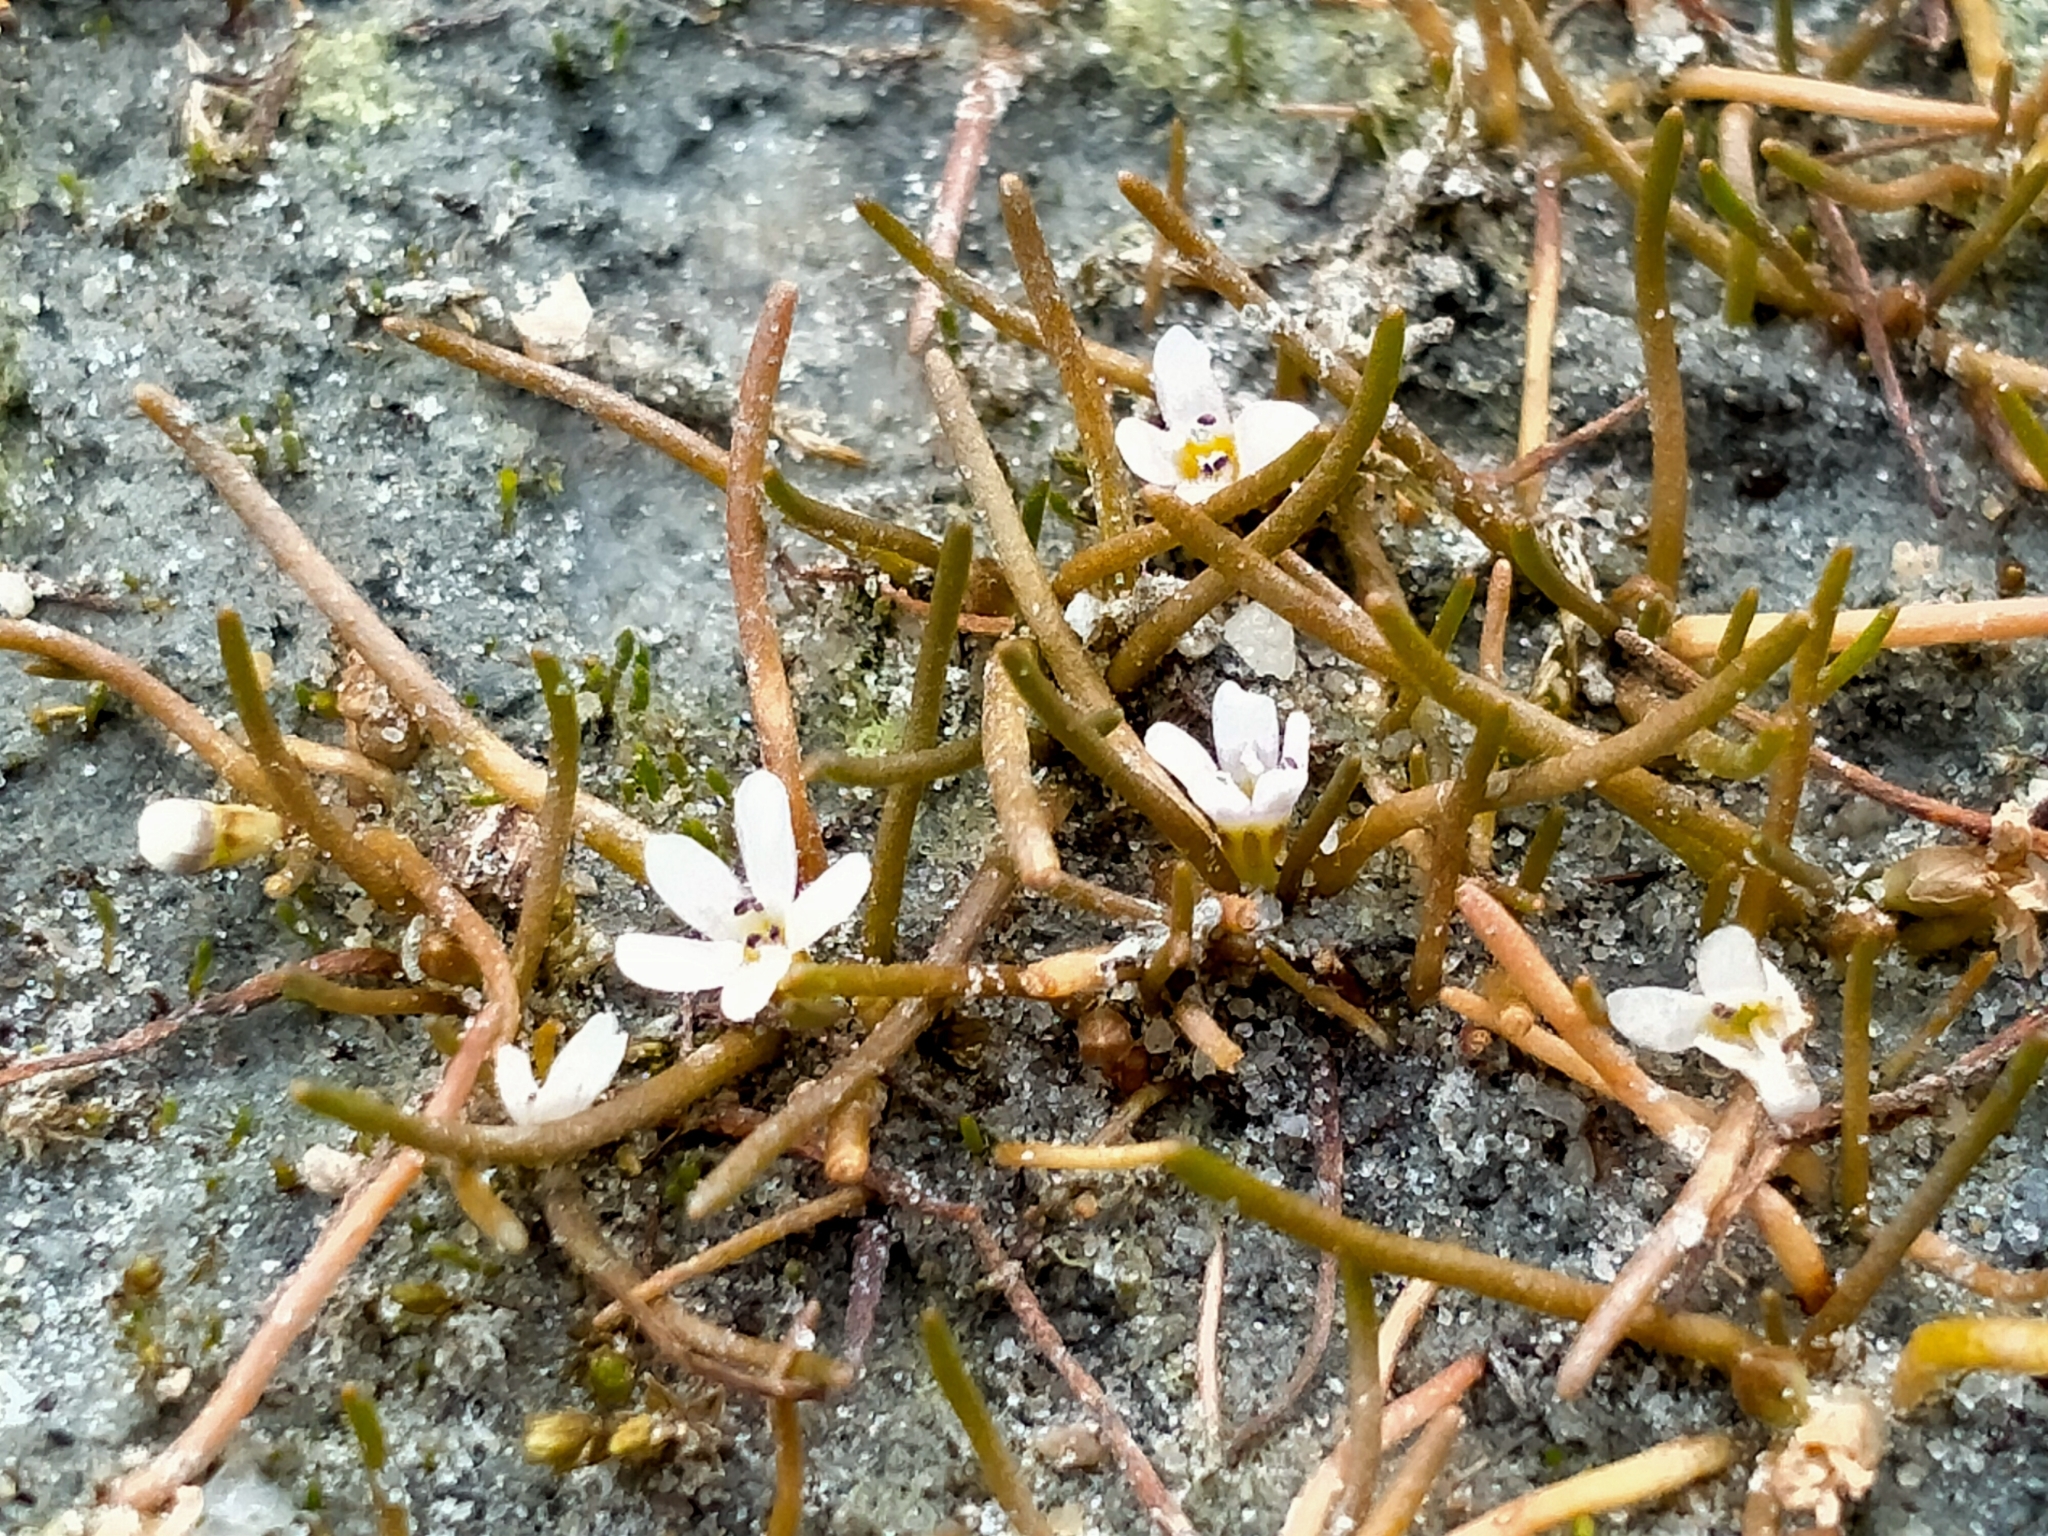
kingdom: Plantae
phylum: Tracheophyta
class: Magnoliopsida
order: Lamiales
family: Scrophulariaceae
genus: Limosella
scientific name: Limosella australis
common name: Welsh mudwort
